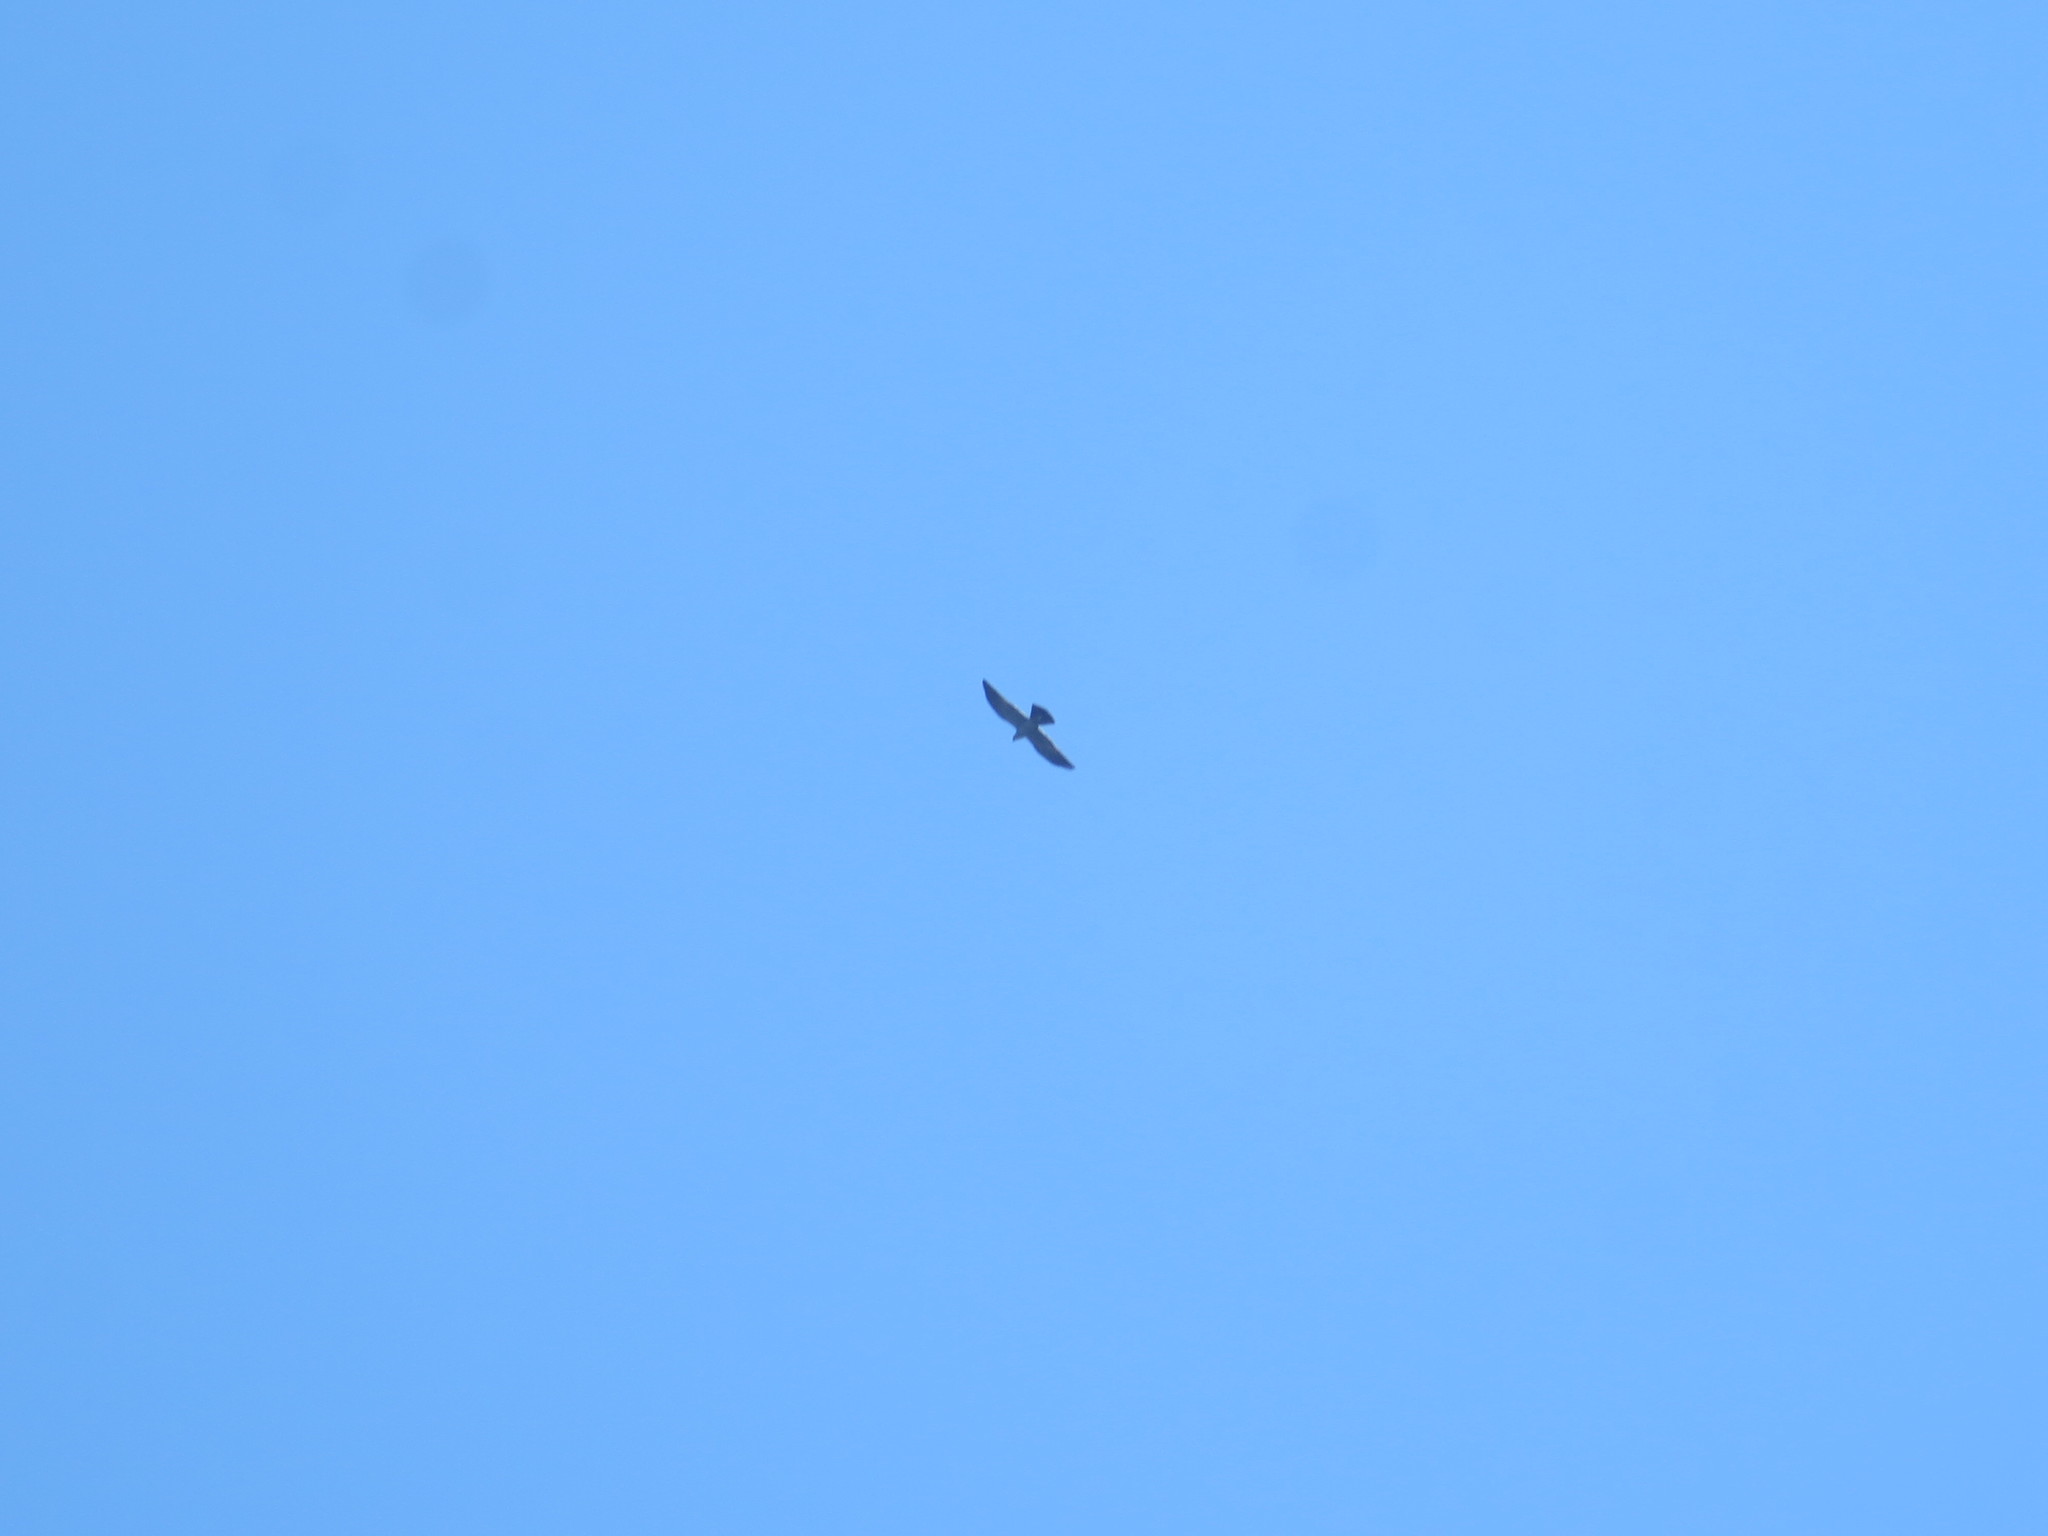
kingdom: Animalia
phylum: Chordata
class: Aves
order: Accipitriformes
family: Accipitridae
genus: Ictinia
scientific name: Ictinia mississippiensis
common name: Mississippi kite
